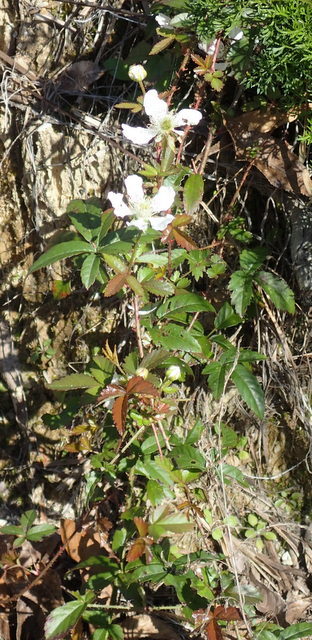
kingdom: Plantae
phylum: Tracheophyta
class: Magnoliopsida
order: Rosales
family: Rosaceae
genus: Rubus
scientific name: Rubus trivialis
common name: Southern dewberry
